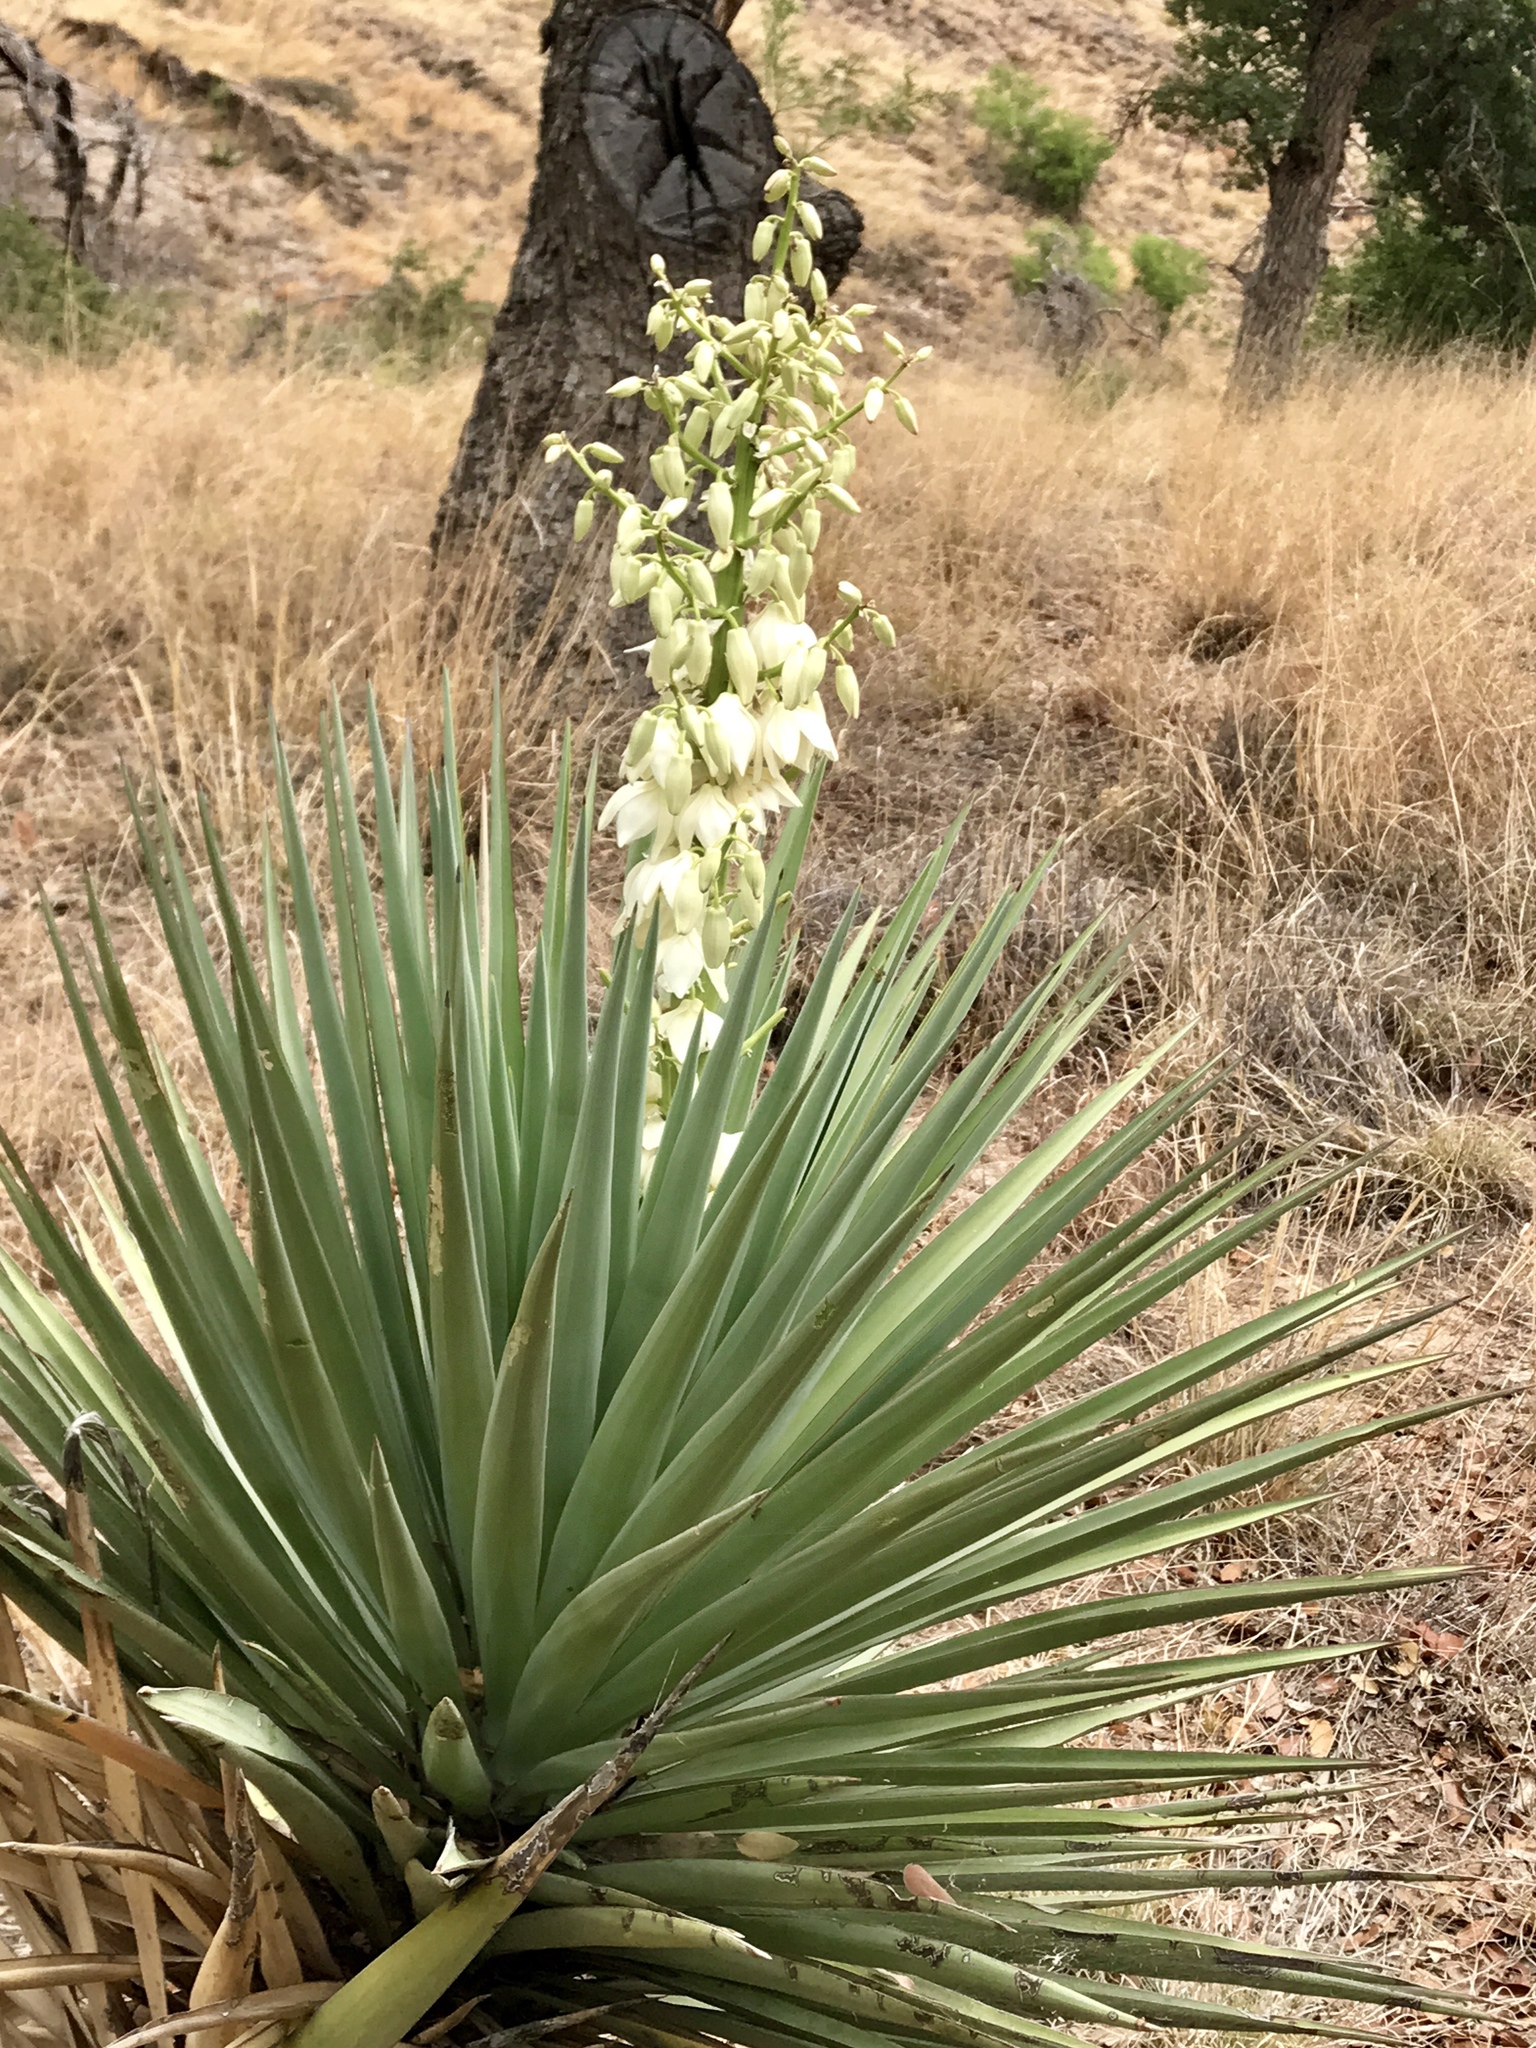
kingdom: Plantae
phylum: Tracheophyta
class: Liliopsida
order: Asparagales
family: Asparagaceae
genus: Yucca
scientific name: Yucca schottii
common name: Hoary yucca
